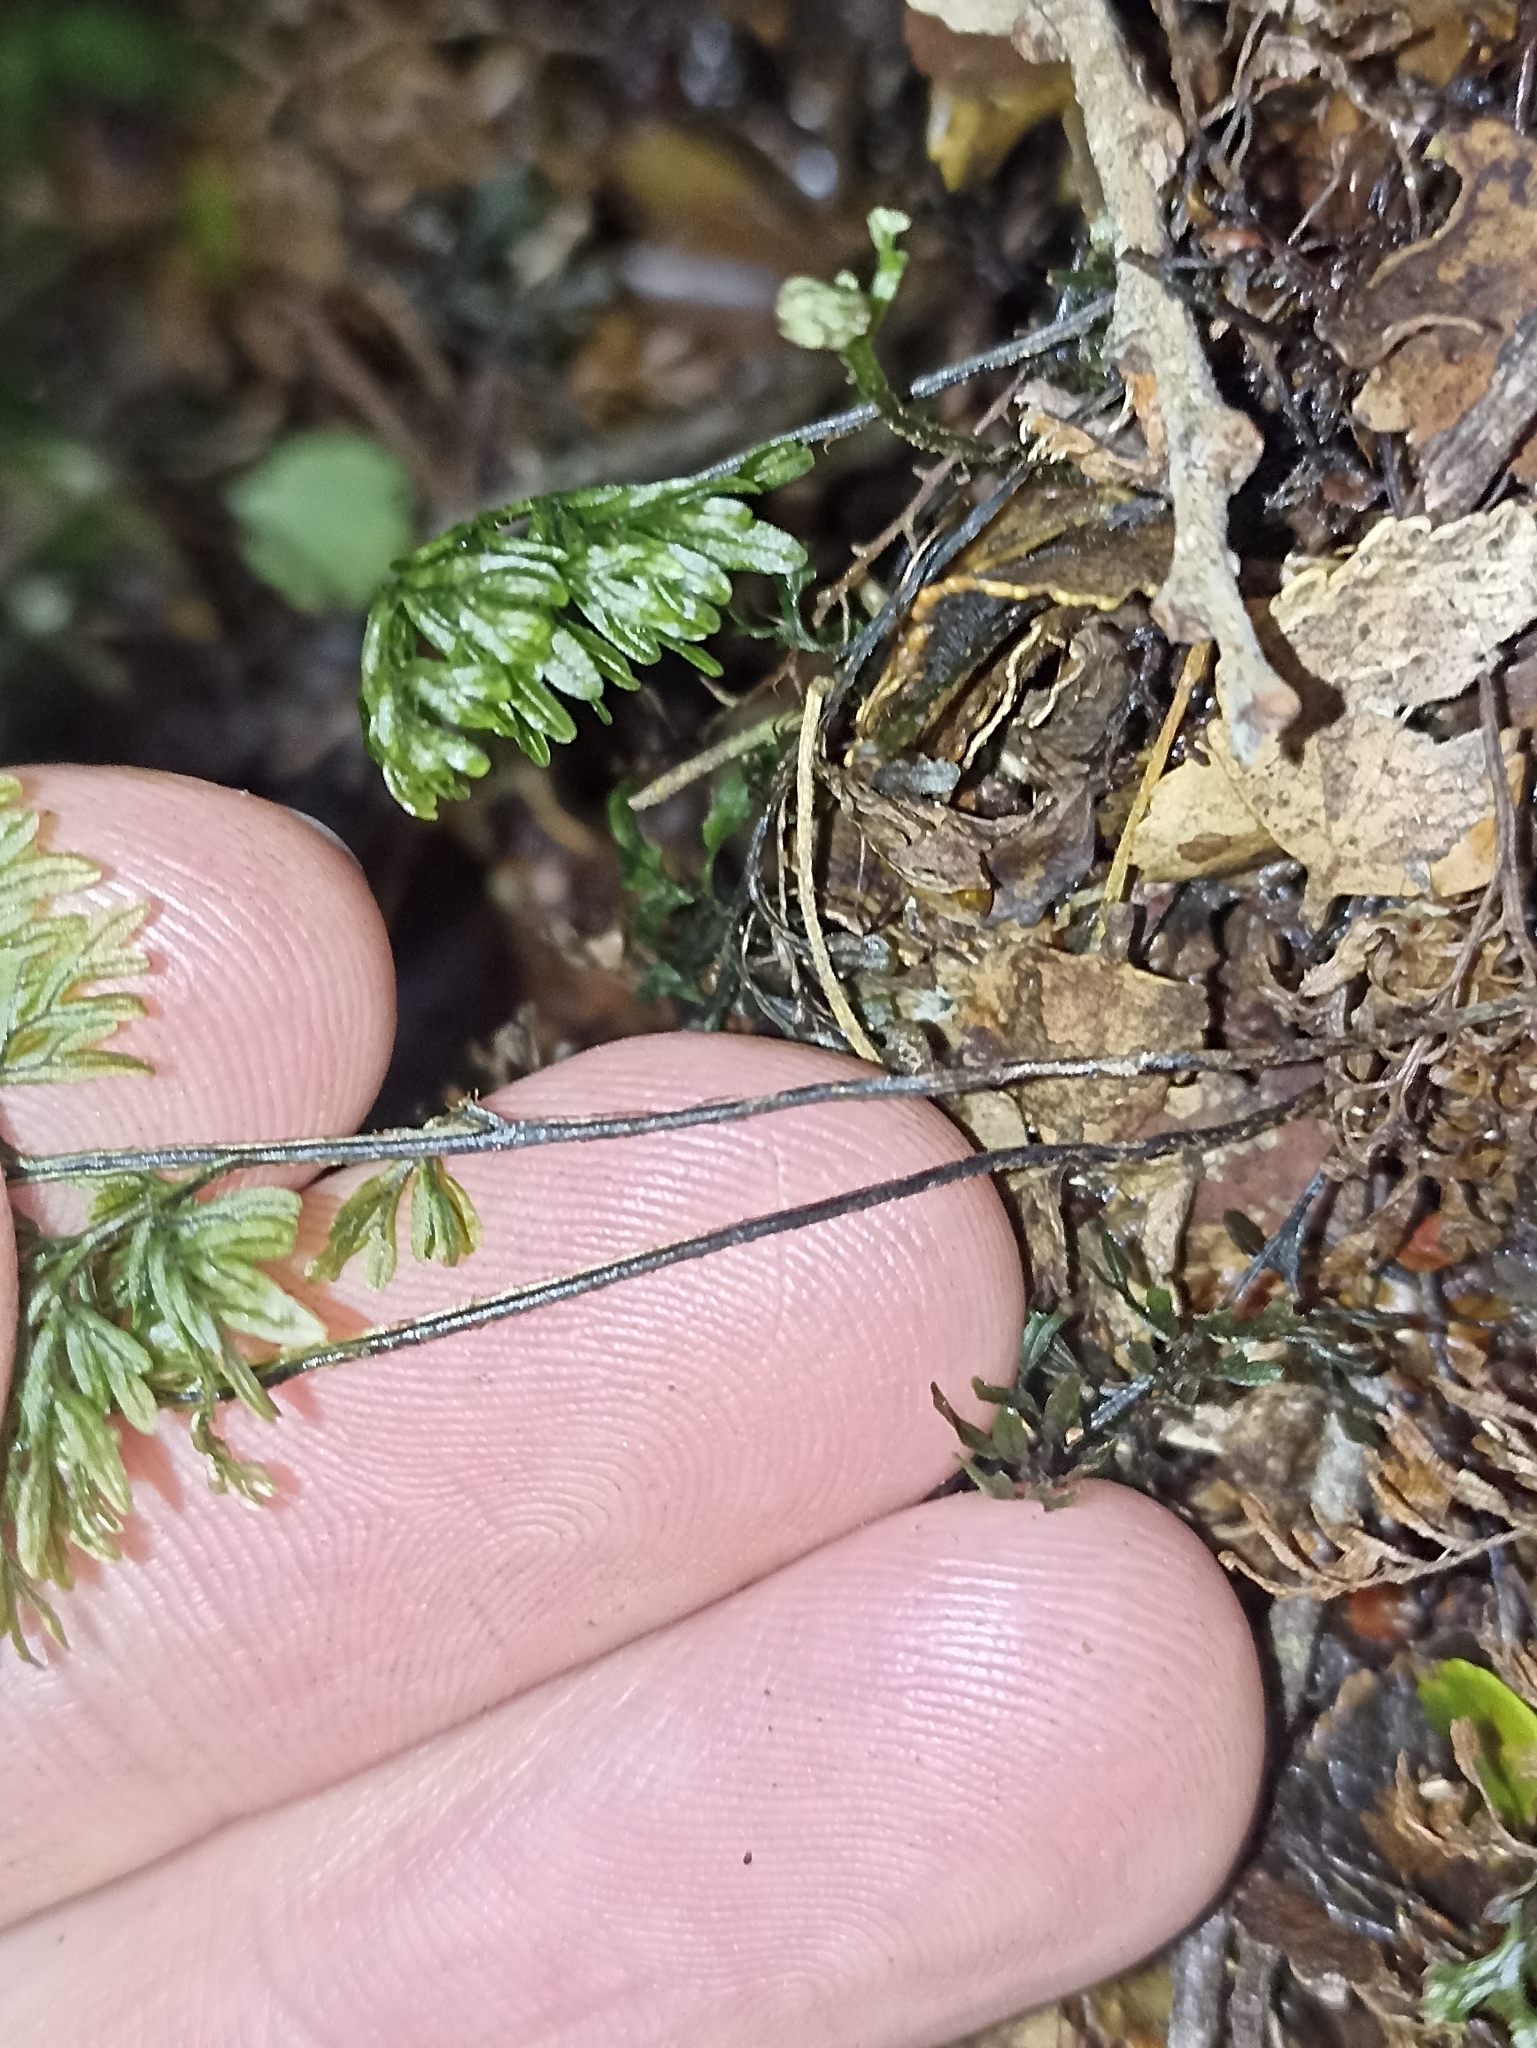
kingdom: Plantae
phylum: Tracheophyta
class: Polypodiopsida
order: Hymenophyllales
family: Hymenophyllaceae
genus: Hymenophyllum
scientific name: Hymenophyllum sanguinolentum
